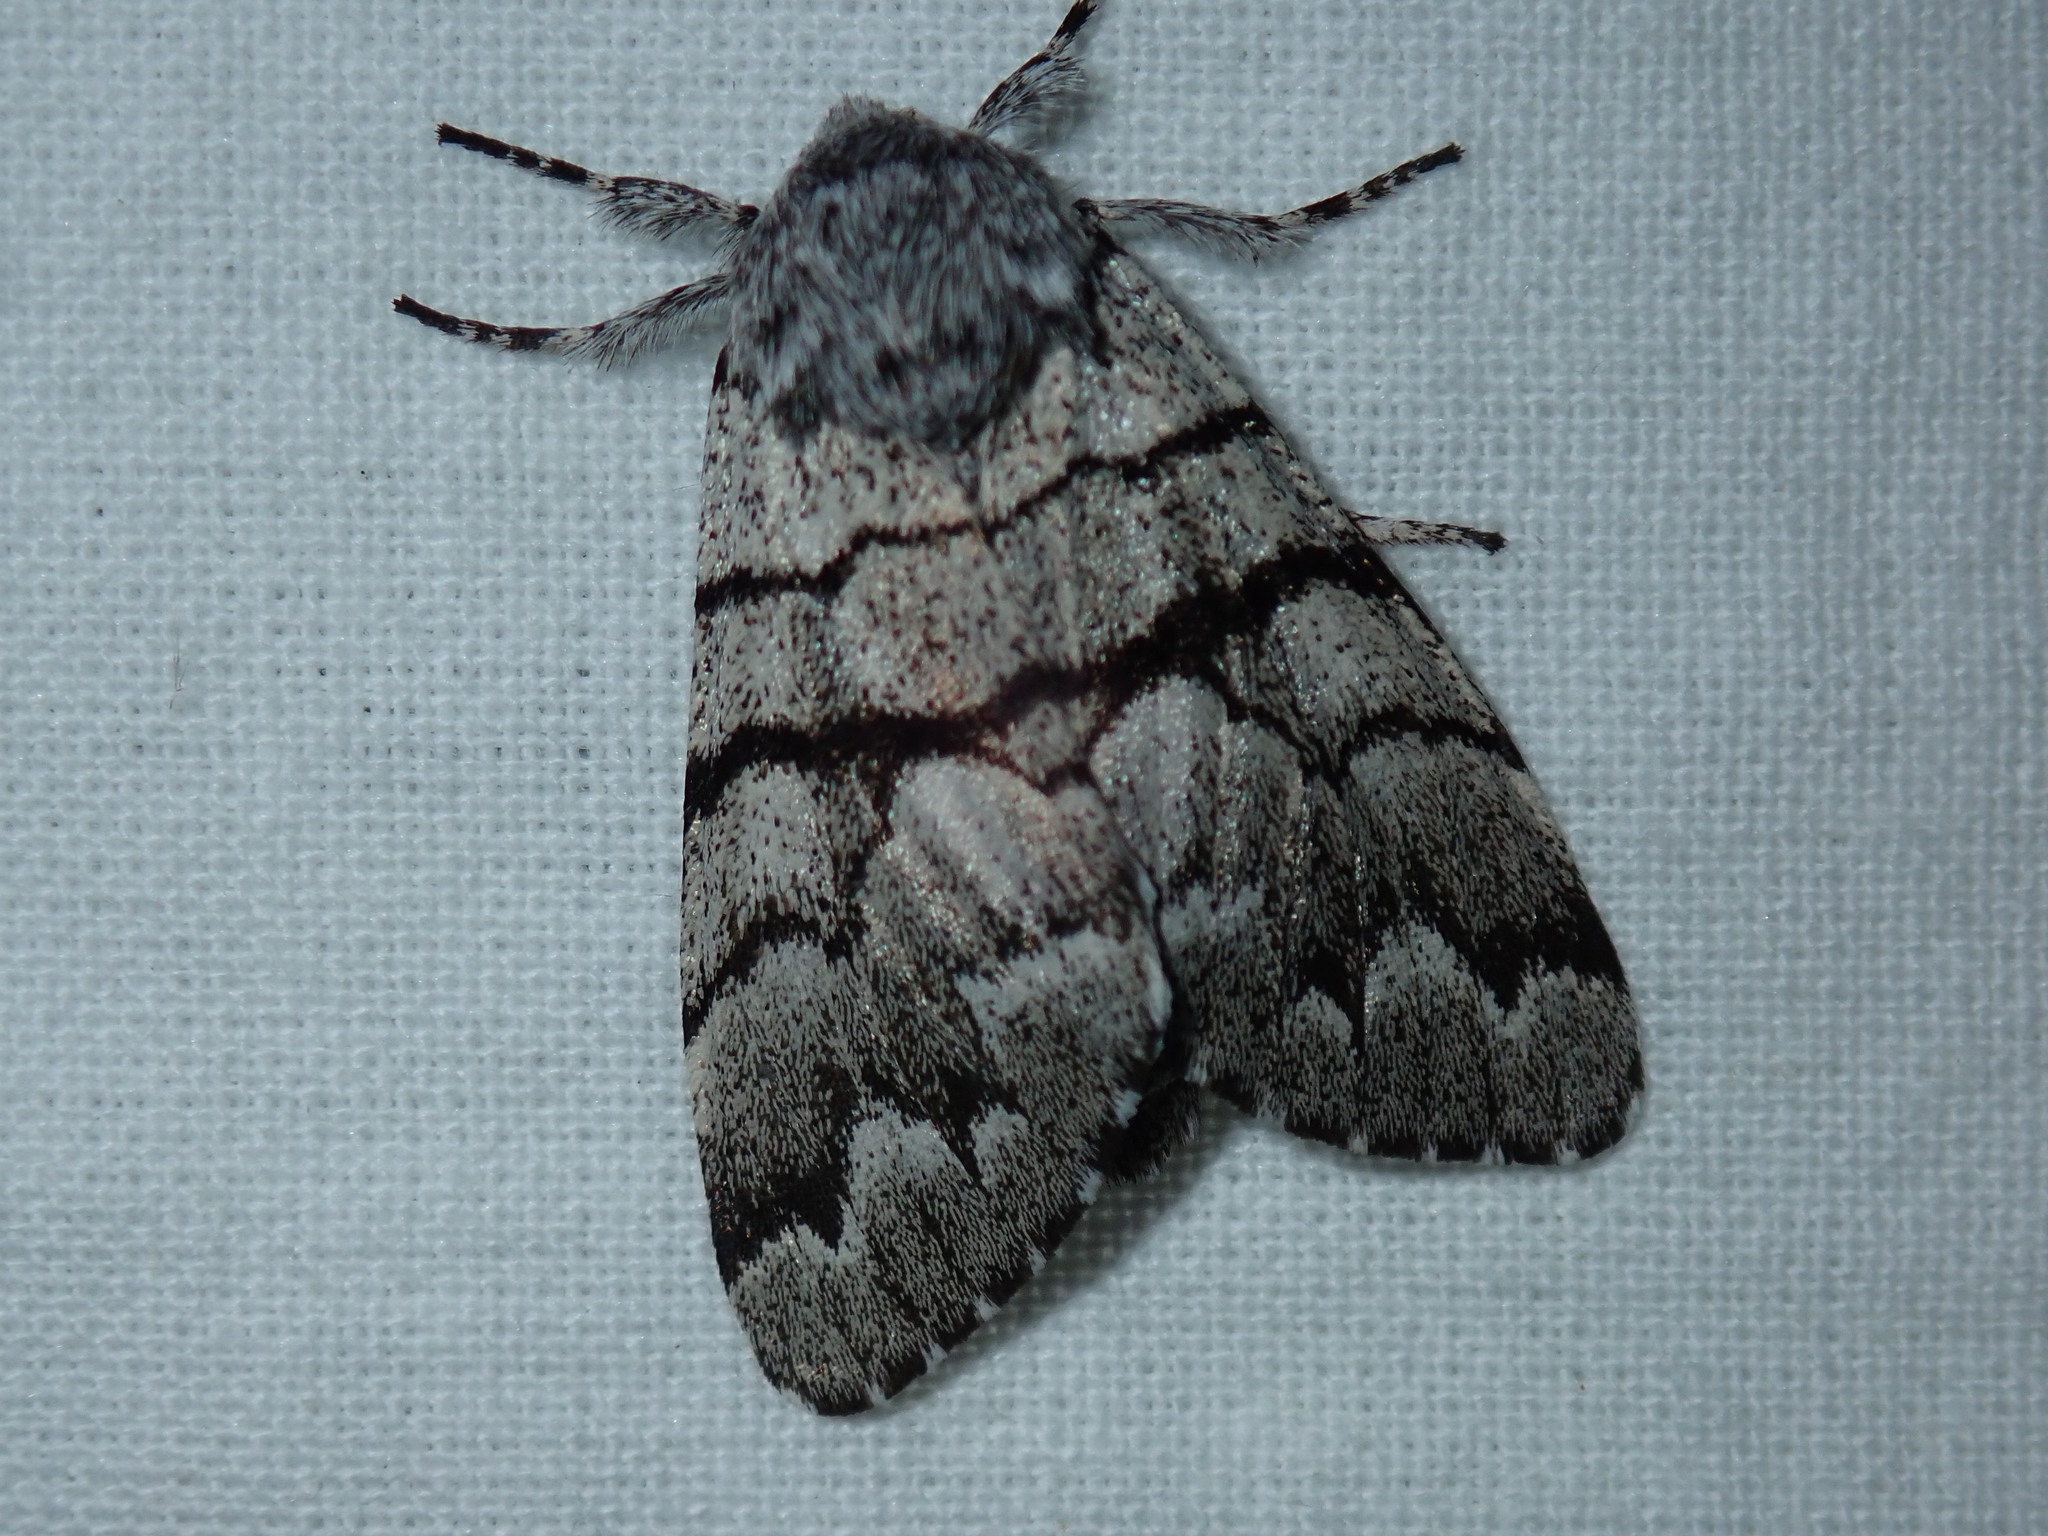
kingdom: Animalia
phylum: Arthropoda
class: Insecta
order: Lepidoptera
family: Noctuidae
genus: Panthea
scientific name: Panthea furcilla
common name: Eastern panthea moth
